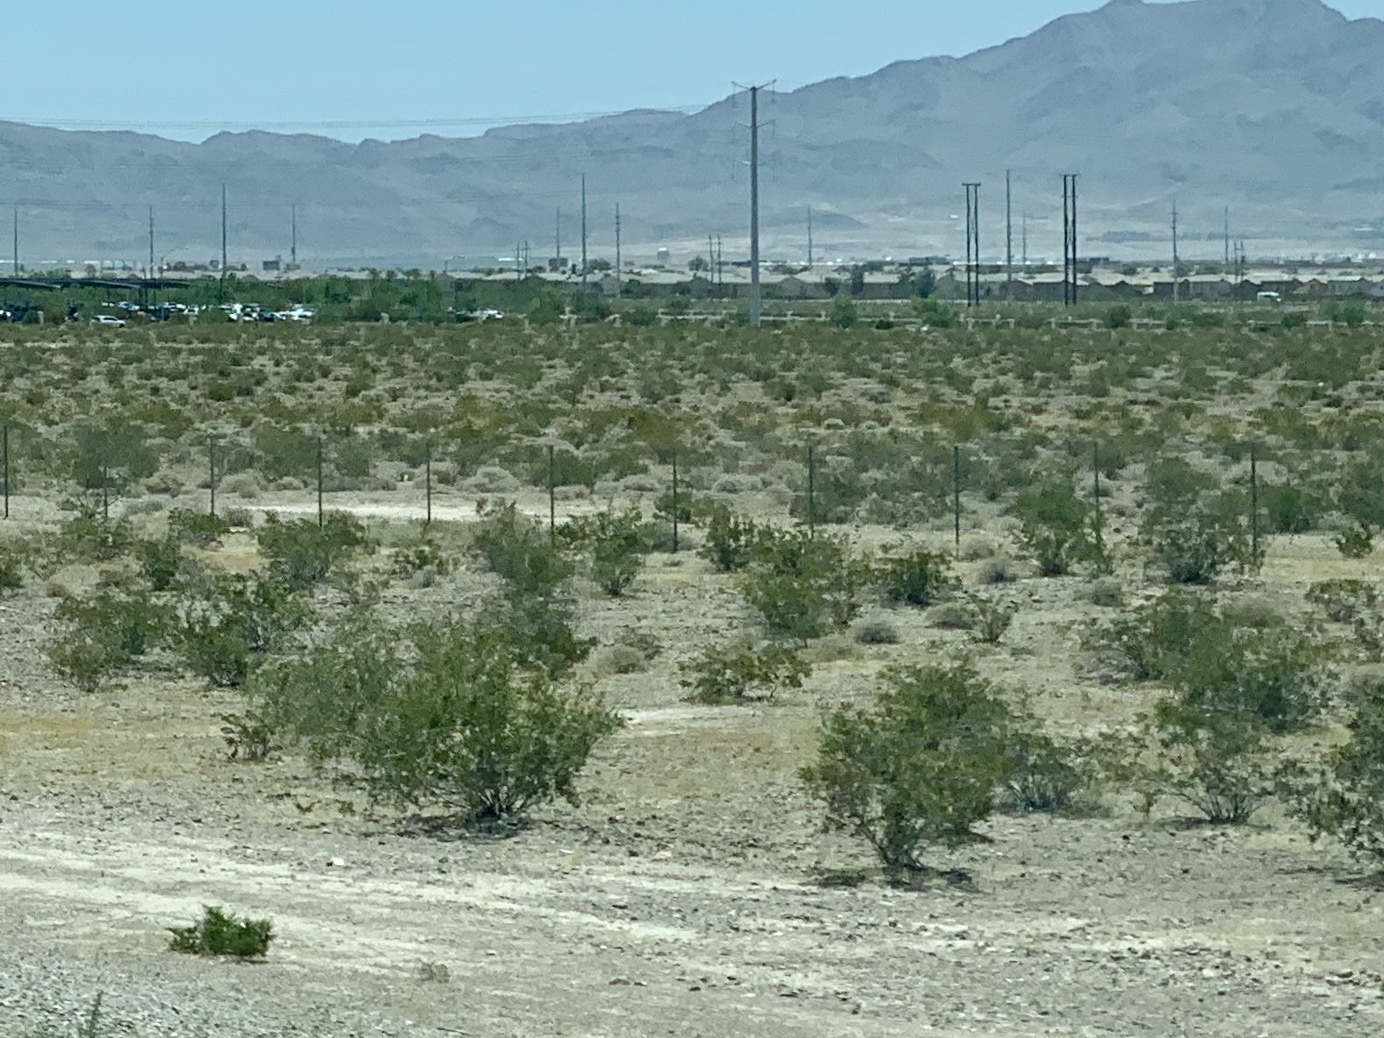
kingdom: Plantae
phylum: Tracheophyta
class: Magnoliopsida
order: Zygophyllales
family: Zygophyllaceae
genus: Larrea
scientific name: Larrea tridentata
